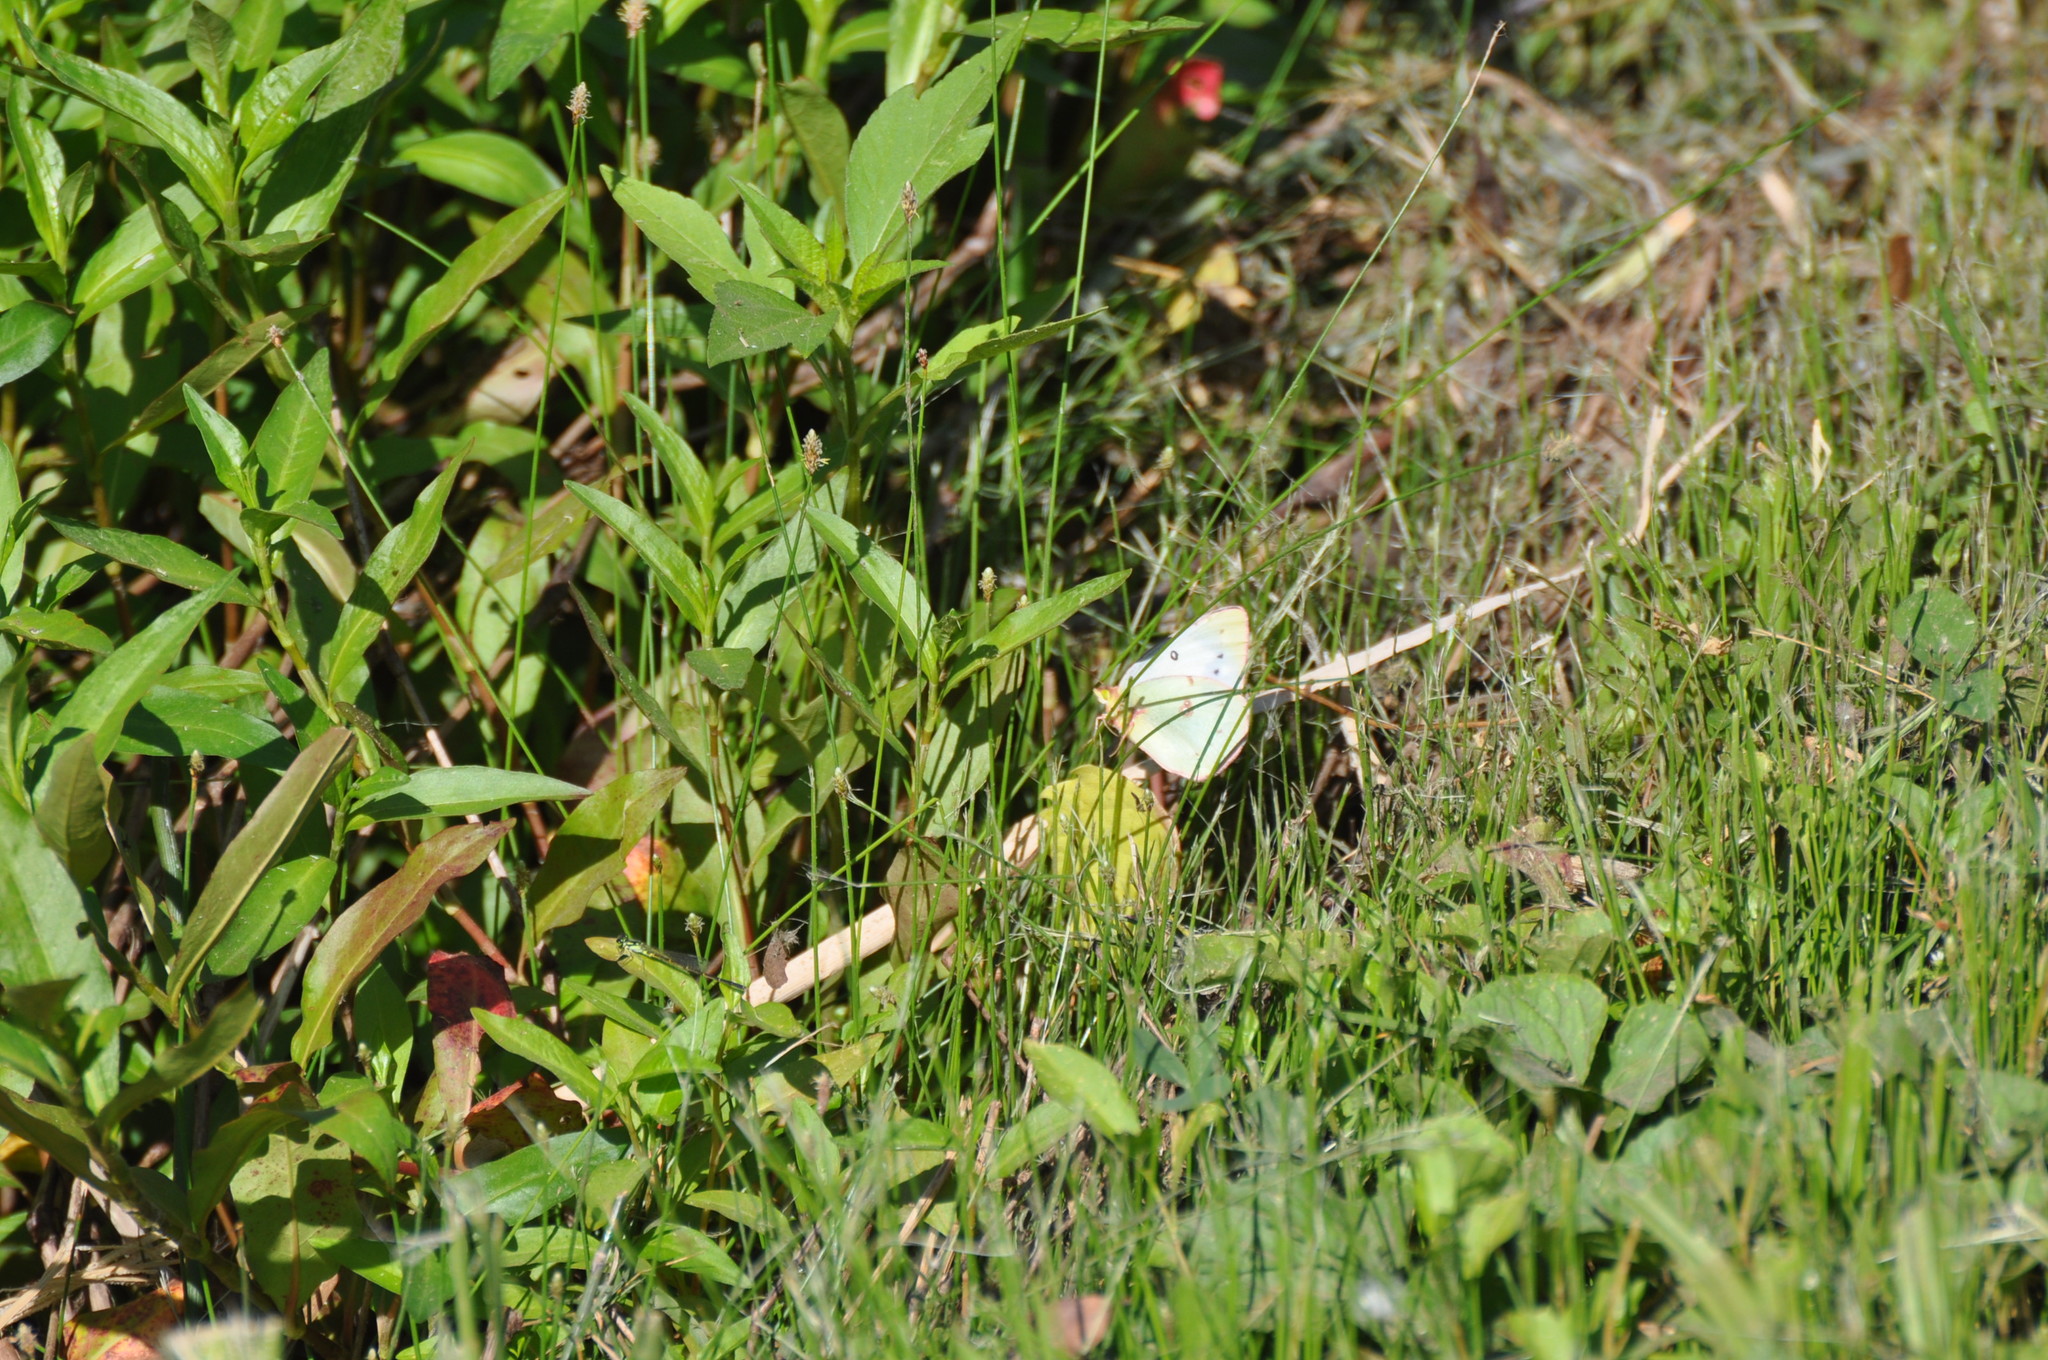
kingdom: Animalia
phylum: Arthropoda
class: Insecta
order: Lepidoptera
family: Pieridae
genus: Colias
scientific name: Colias philodice
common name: Clouded sulphur
